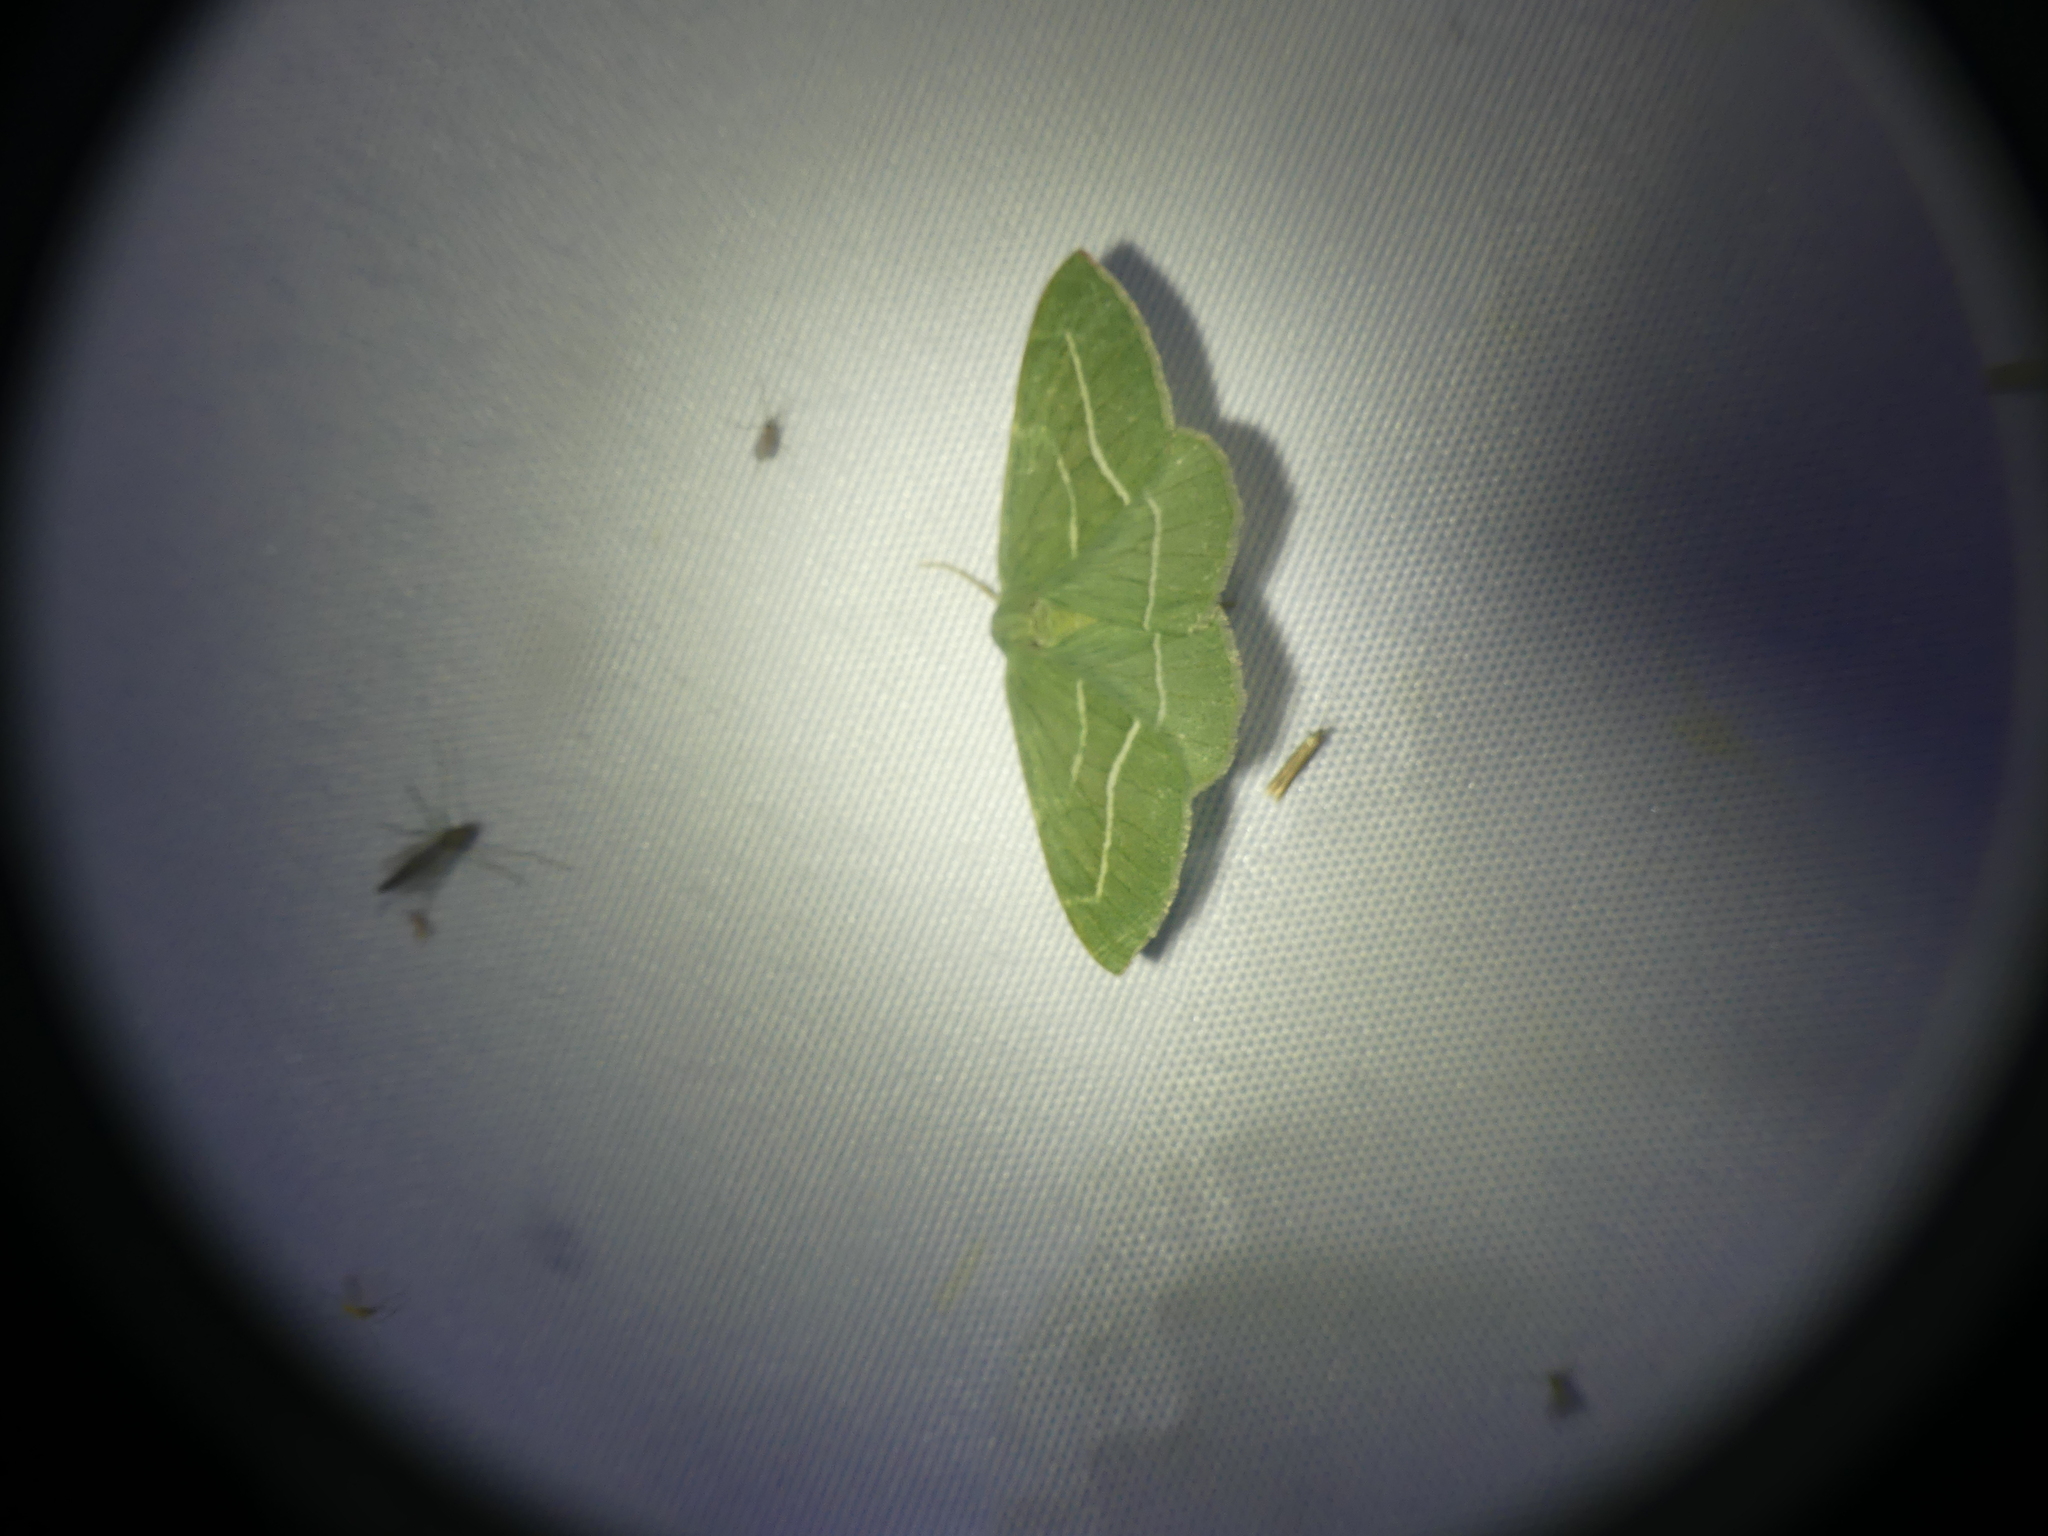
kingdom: Animalia
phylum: Arthropoda
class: Insecta
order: Lepidoptera
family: Geometridae
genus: Hylaea
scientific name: Hylaea fasciaria
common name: Barred red
